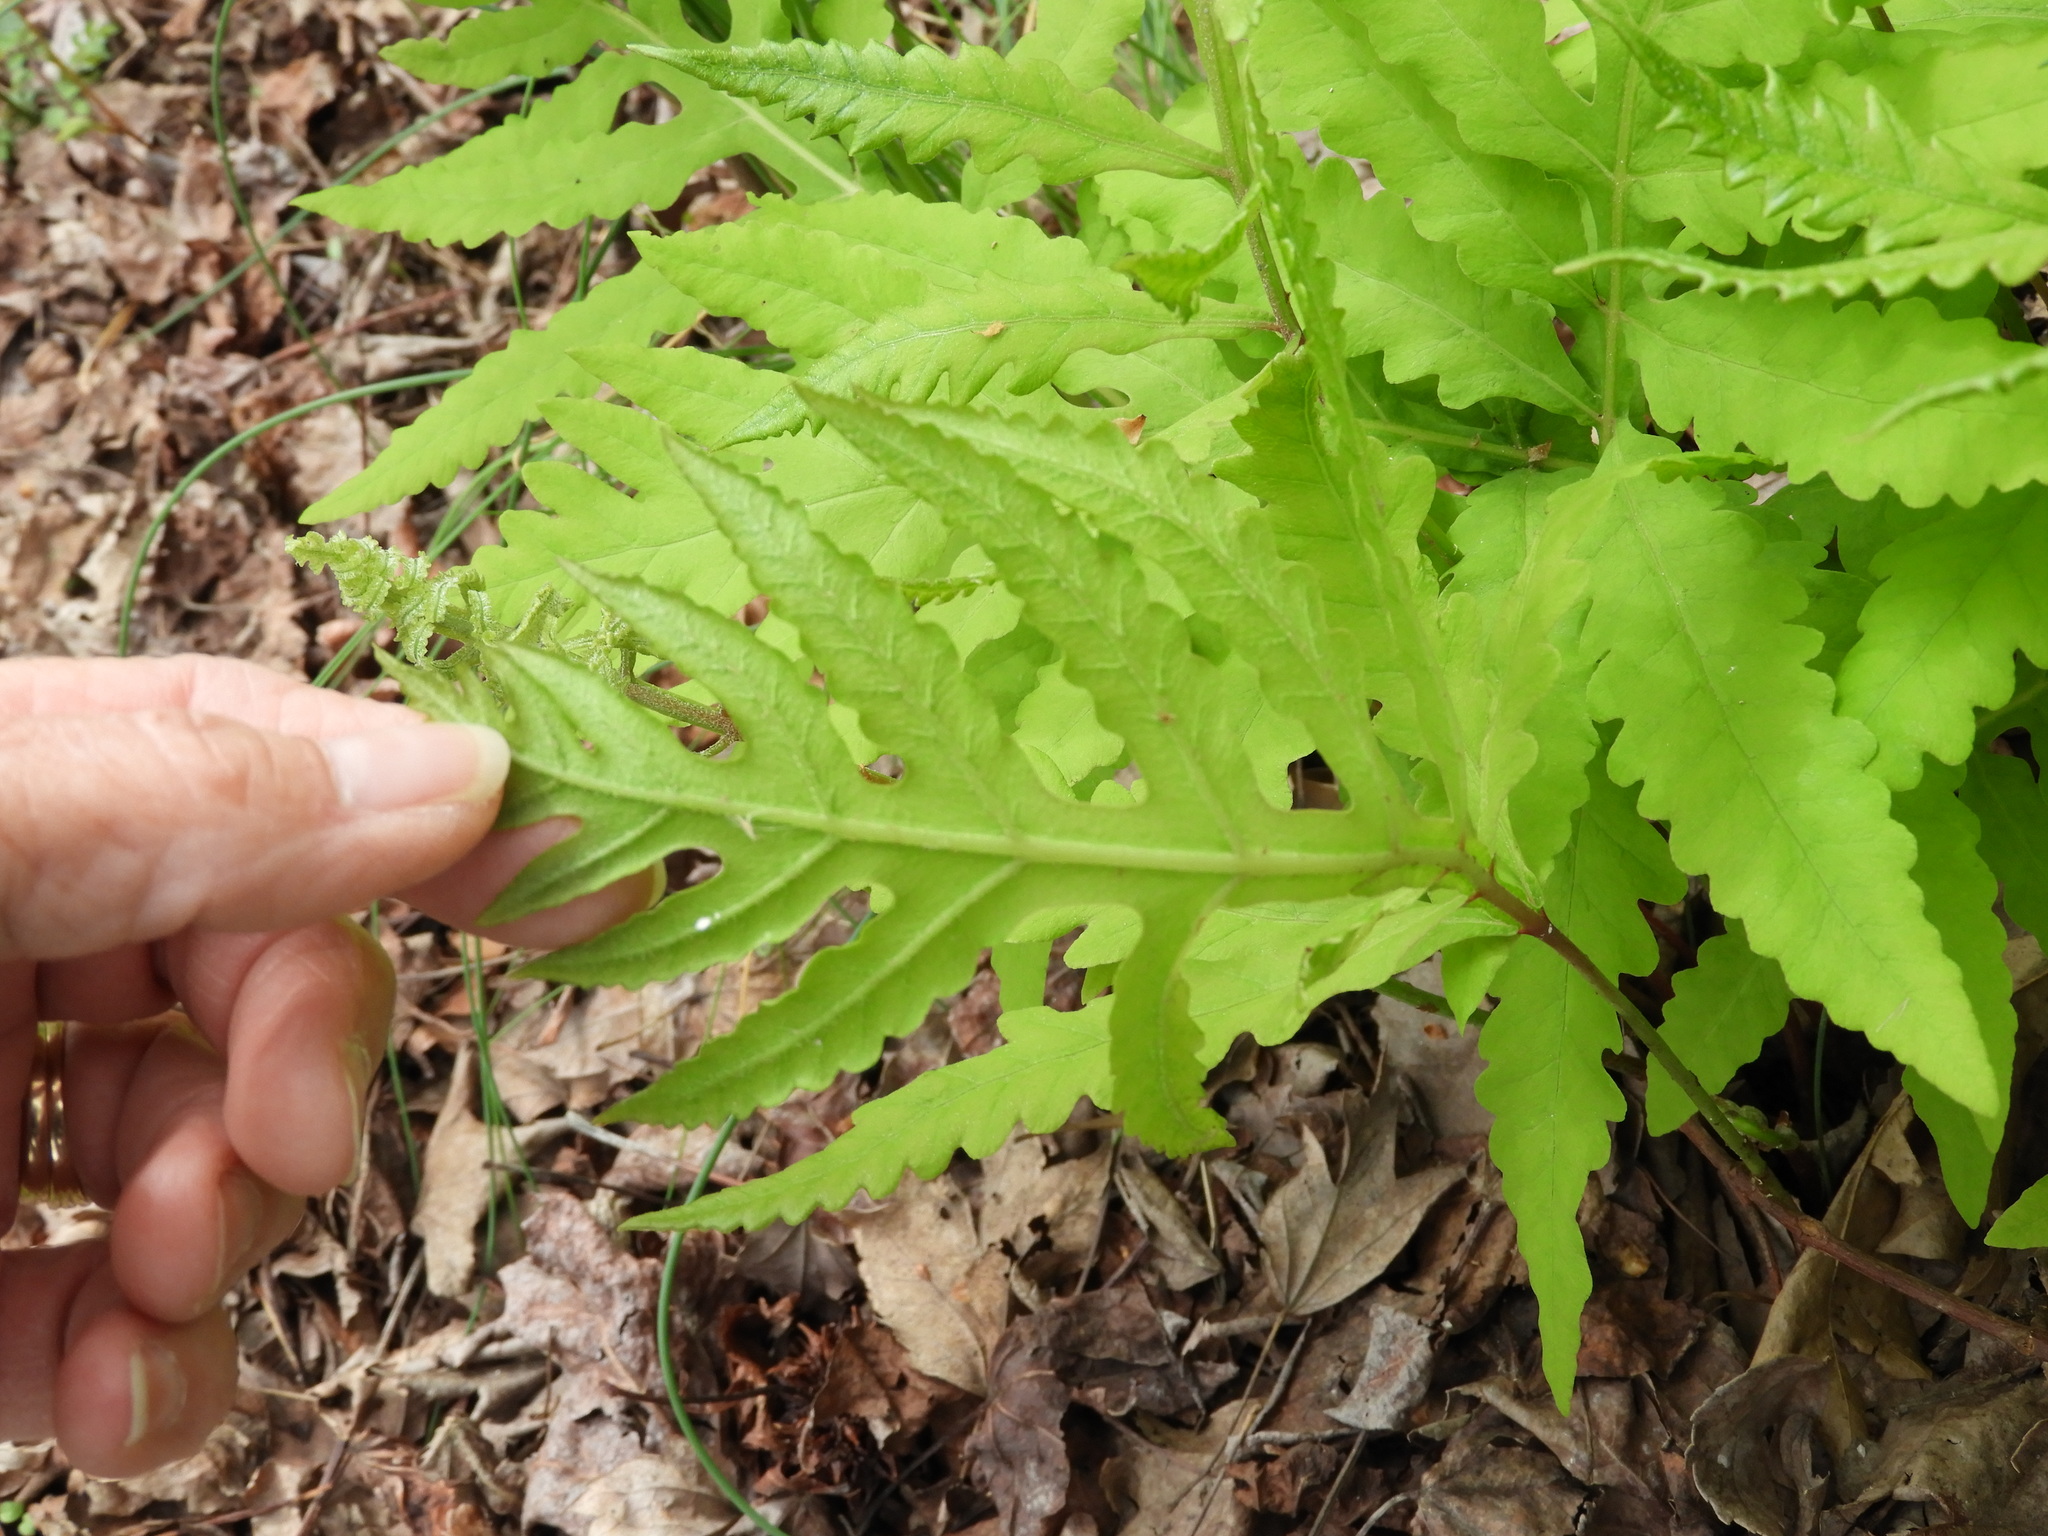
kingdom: Plantae
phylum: Tracheophyta
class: Polypodiopsida
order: Polypodiales
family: Onocleaceae
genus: Onoclea
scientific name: Onoclea sensibilis
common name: Sensitive fern
